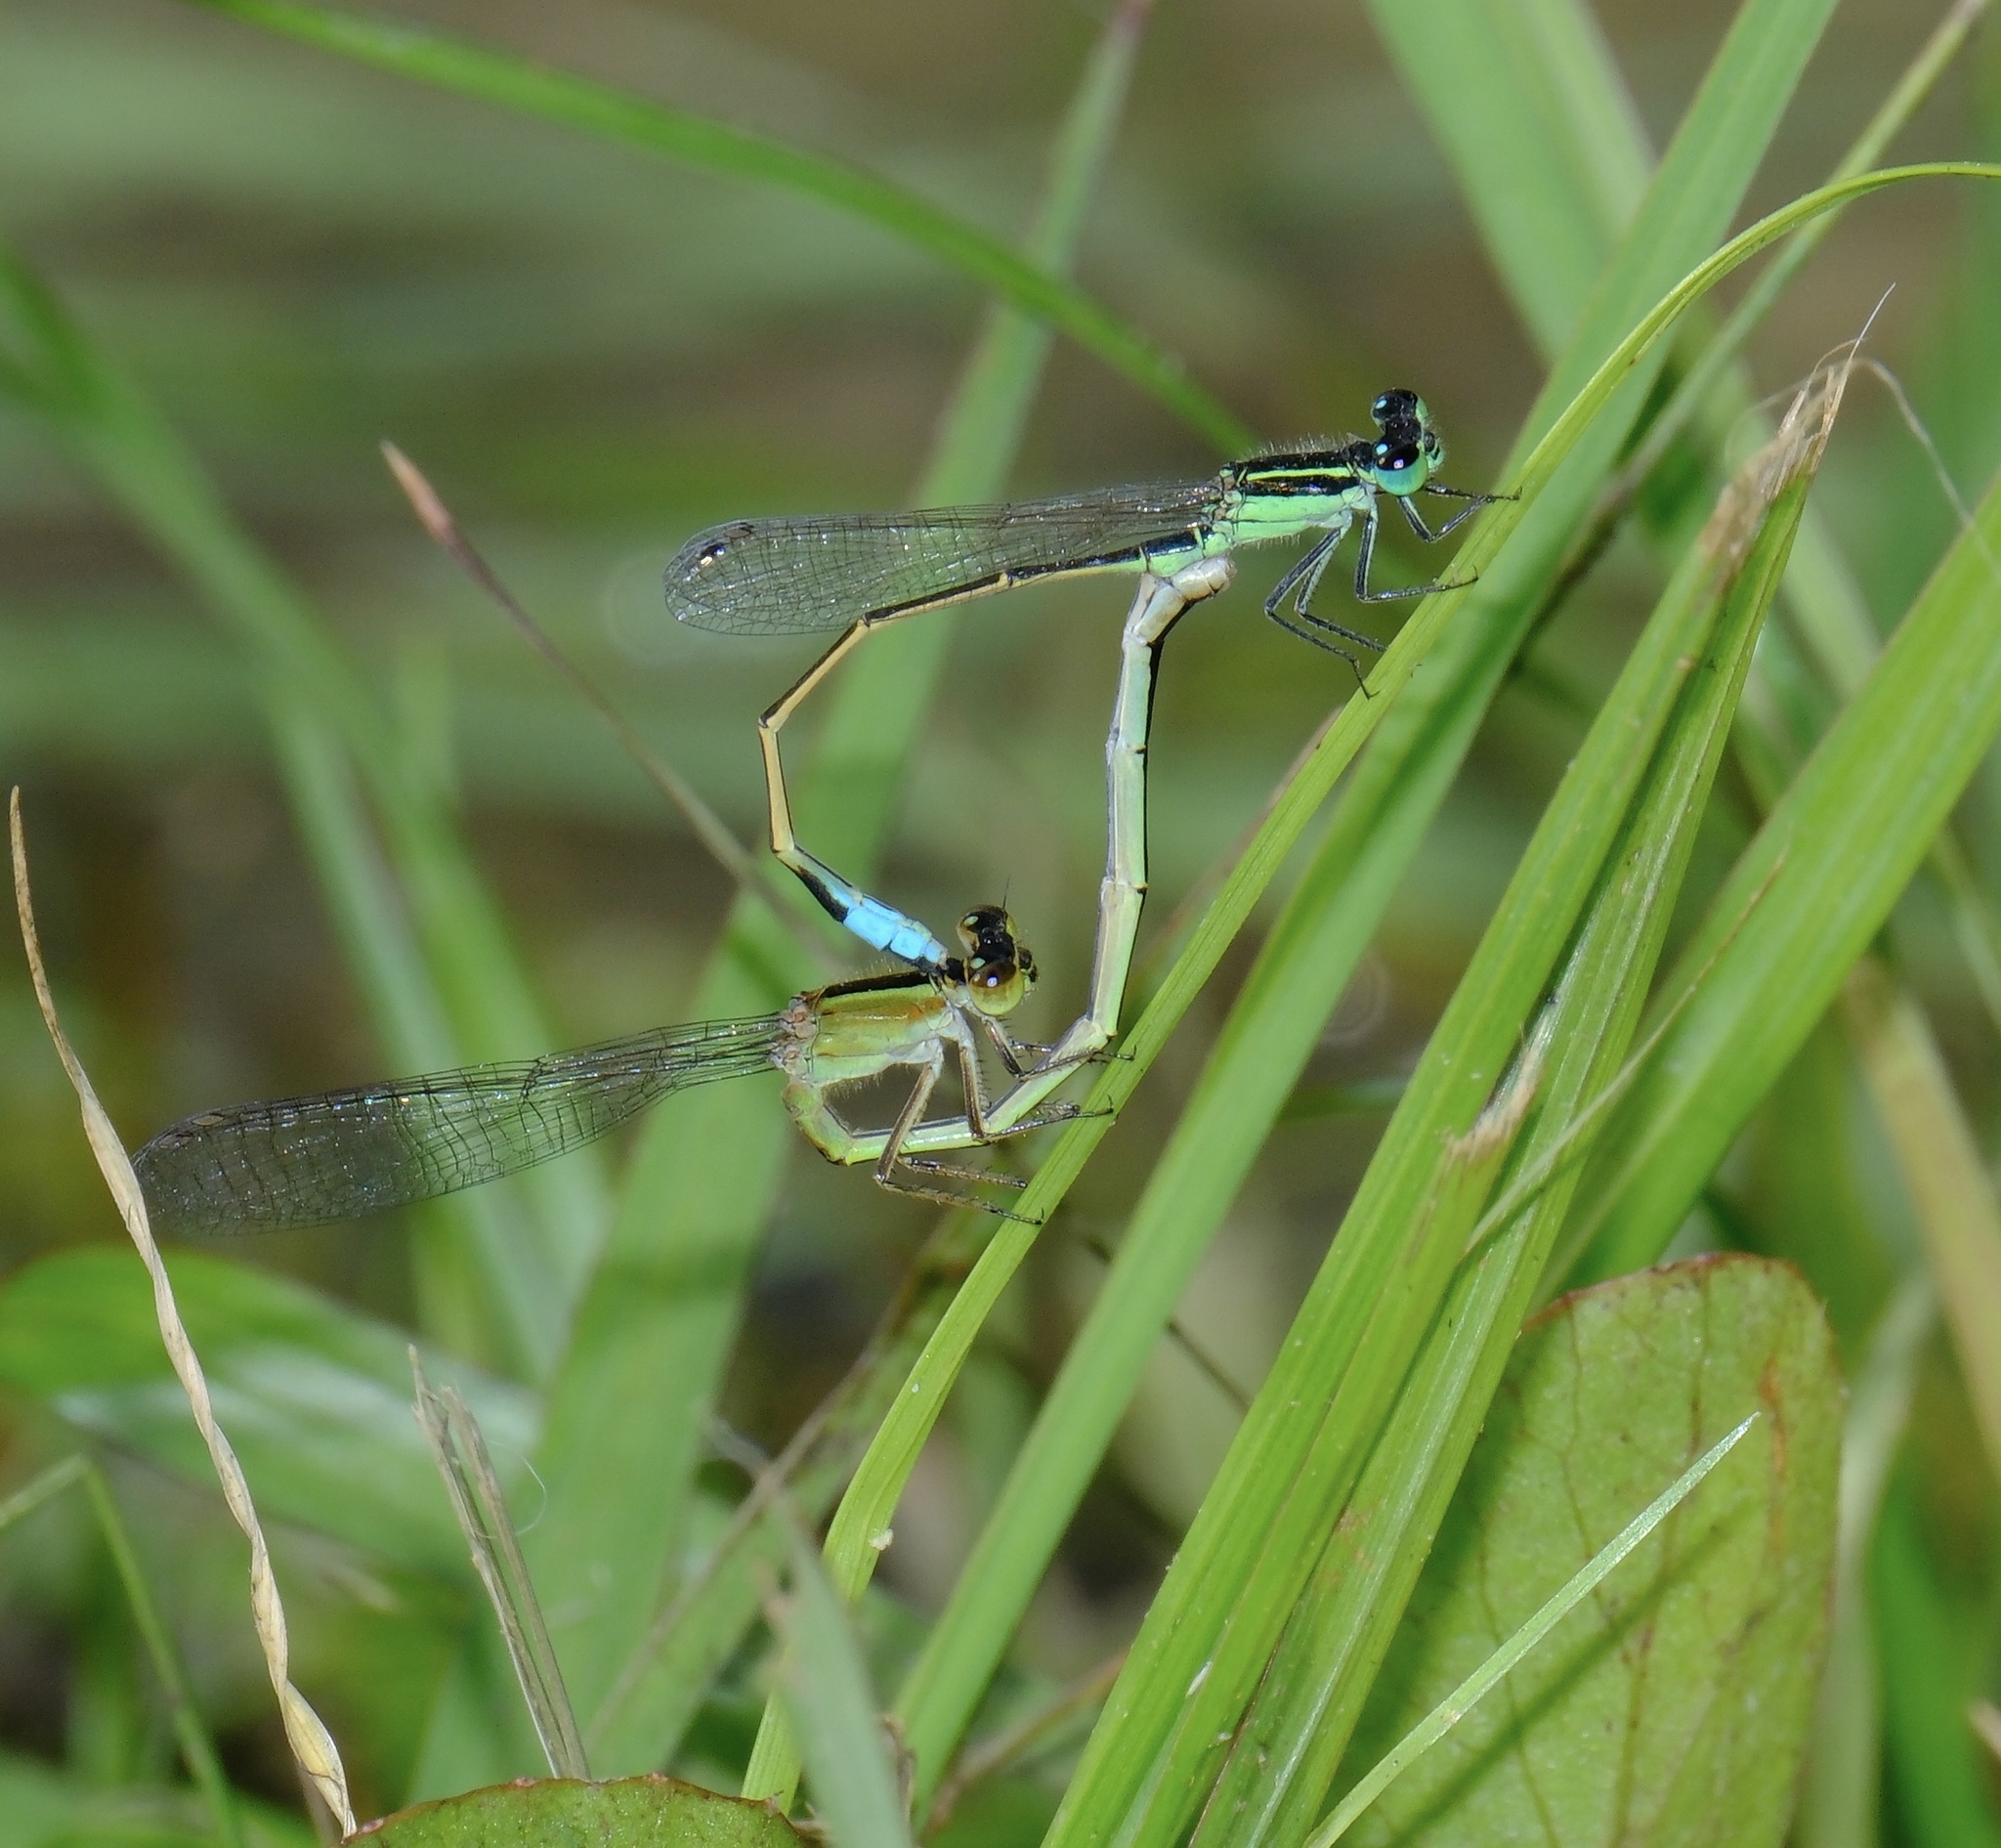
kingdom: Animalia
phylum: Arthropoda
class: Insecta
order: Odonata
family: Coenagrionidae
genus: Ischnura
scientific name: Ischnura ramburii
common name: Rambur's forktail
